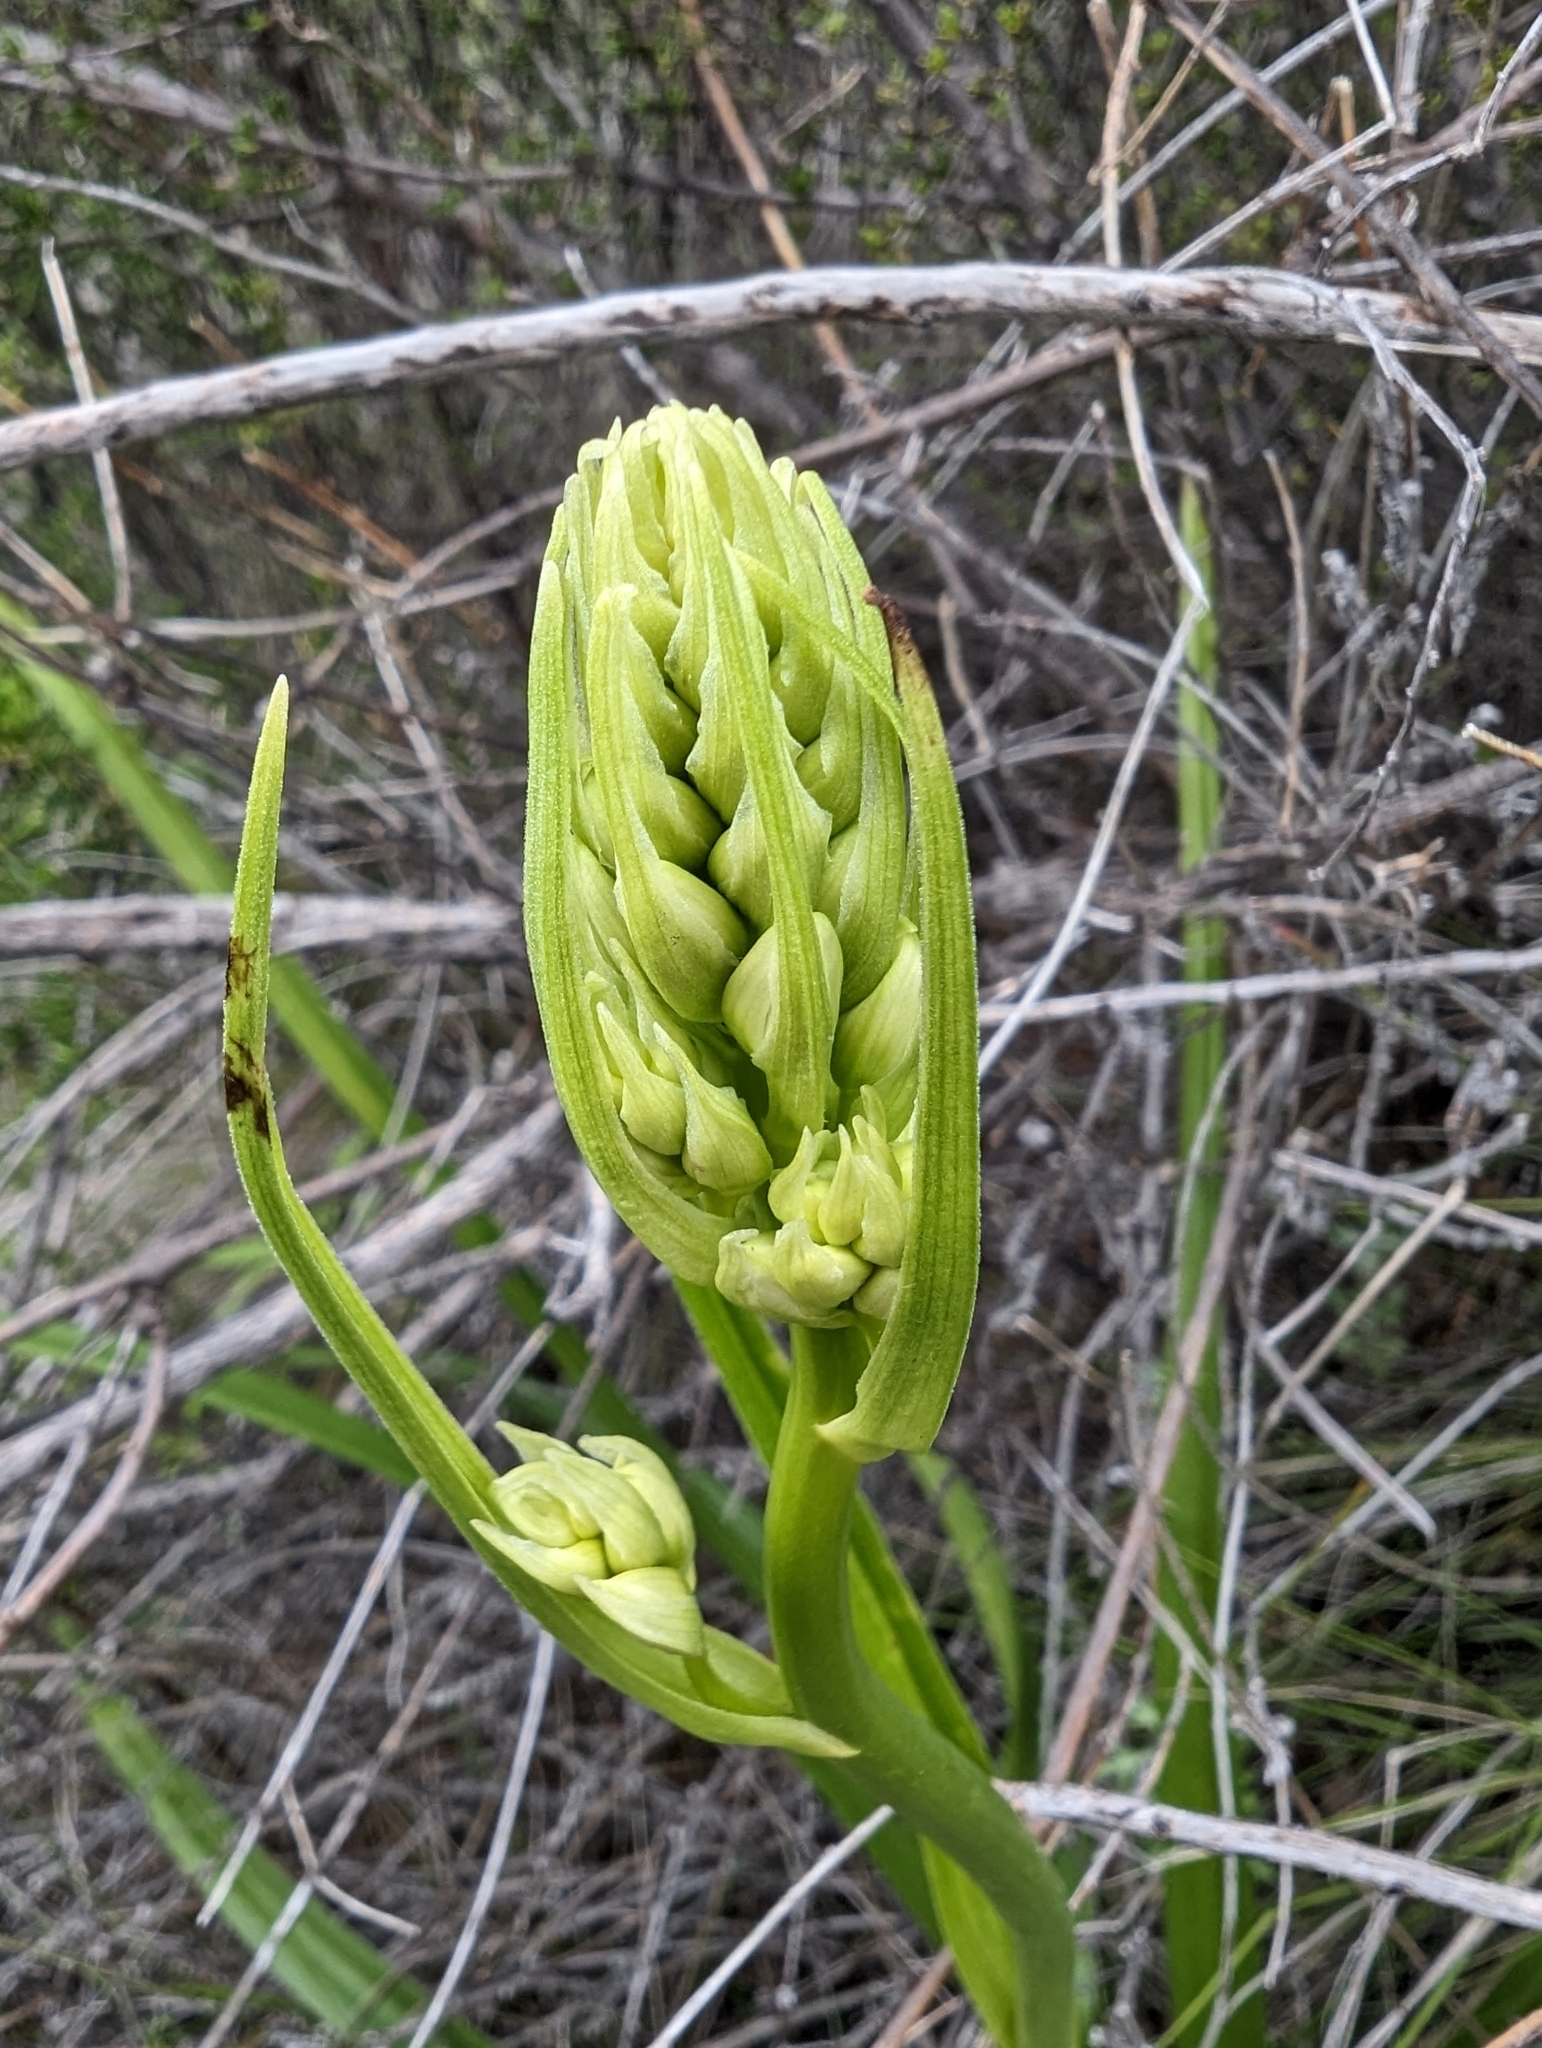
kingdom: Plantae
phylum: Tracheophyta
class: Liliopsida
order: Liliales
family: Melanthiaceae
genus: Toxicoscordion
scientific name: Toxicoscordion fremontii
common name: Fremont's death camas
